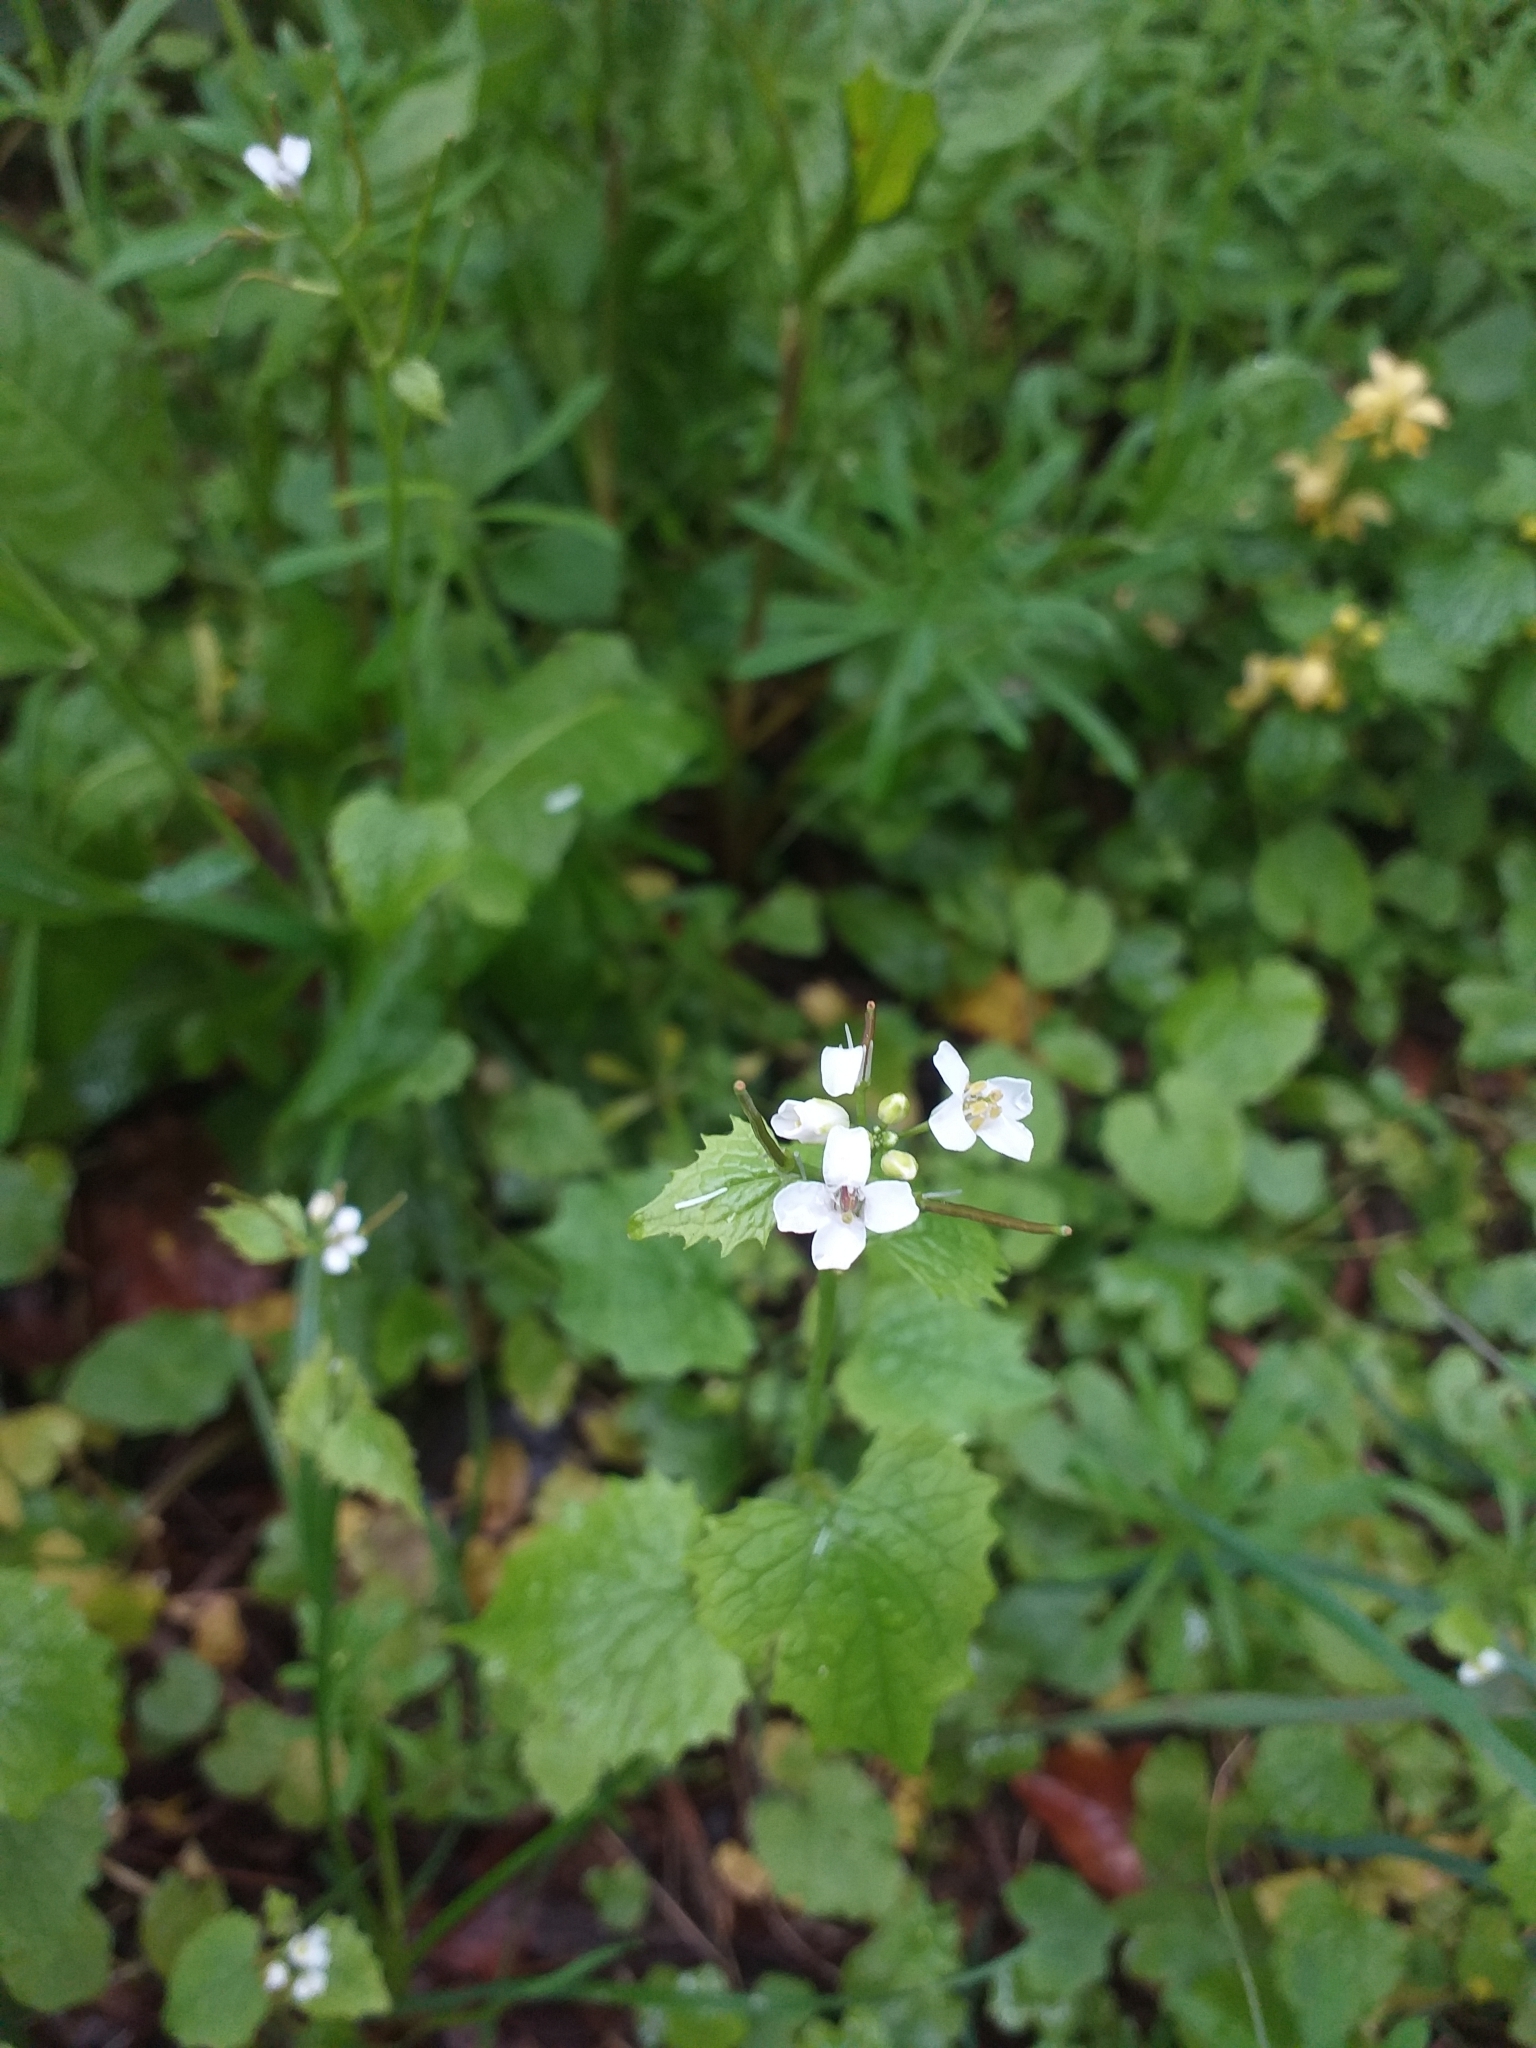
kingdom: Plantae
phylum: Tracheophyta
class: Magnoliopsida
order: Brassicales
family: Brassicaceae
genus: Alliaria
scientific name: Alliaria petiolata
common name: Garlic mustard
